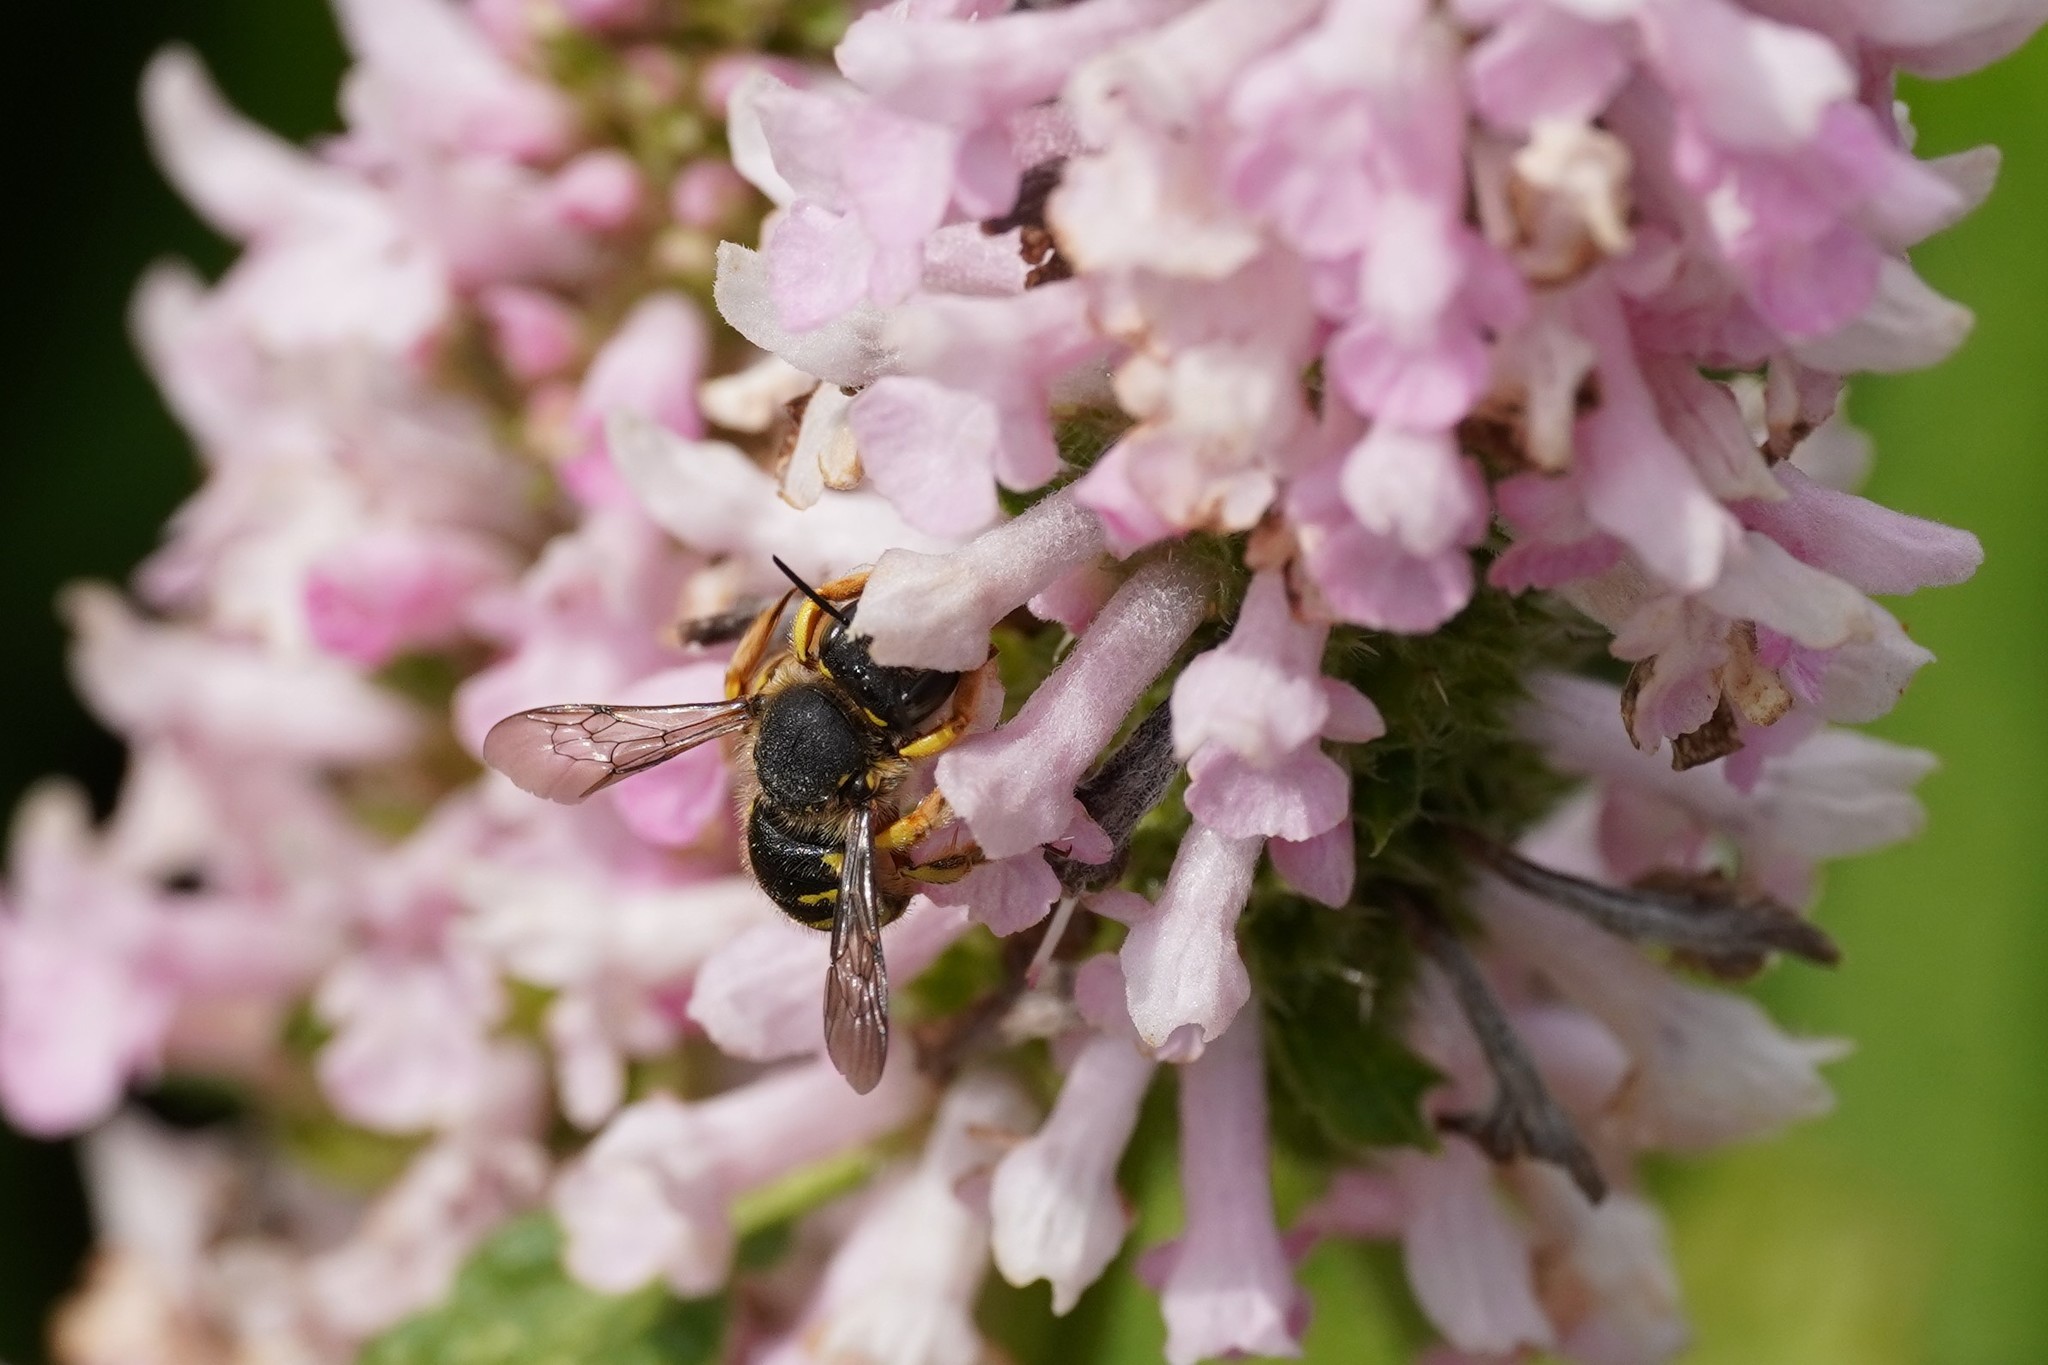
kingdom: Animalia
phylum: Arthropoda
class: Insecta
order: Hymenoptera
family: Megachilidae
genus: Anthidium
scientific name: Anthidium manicatum
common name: Wool carder bee
